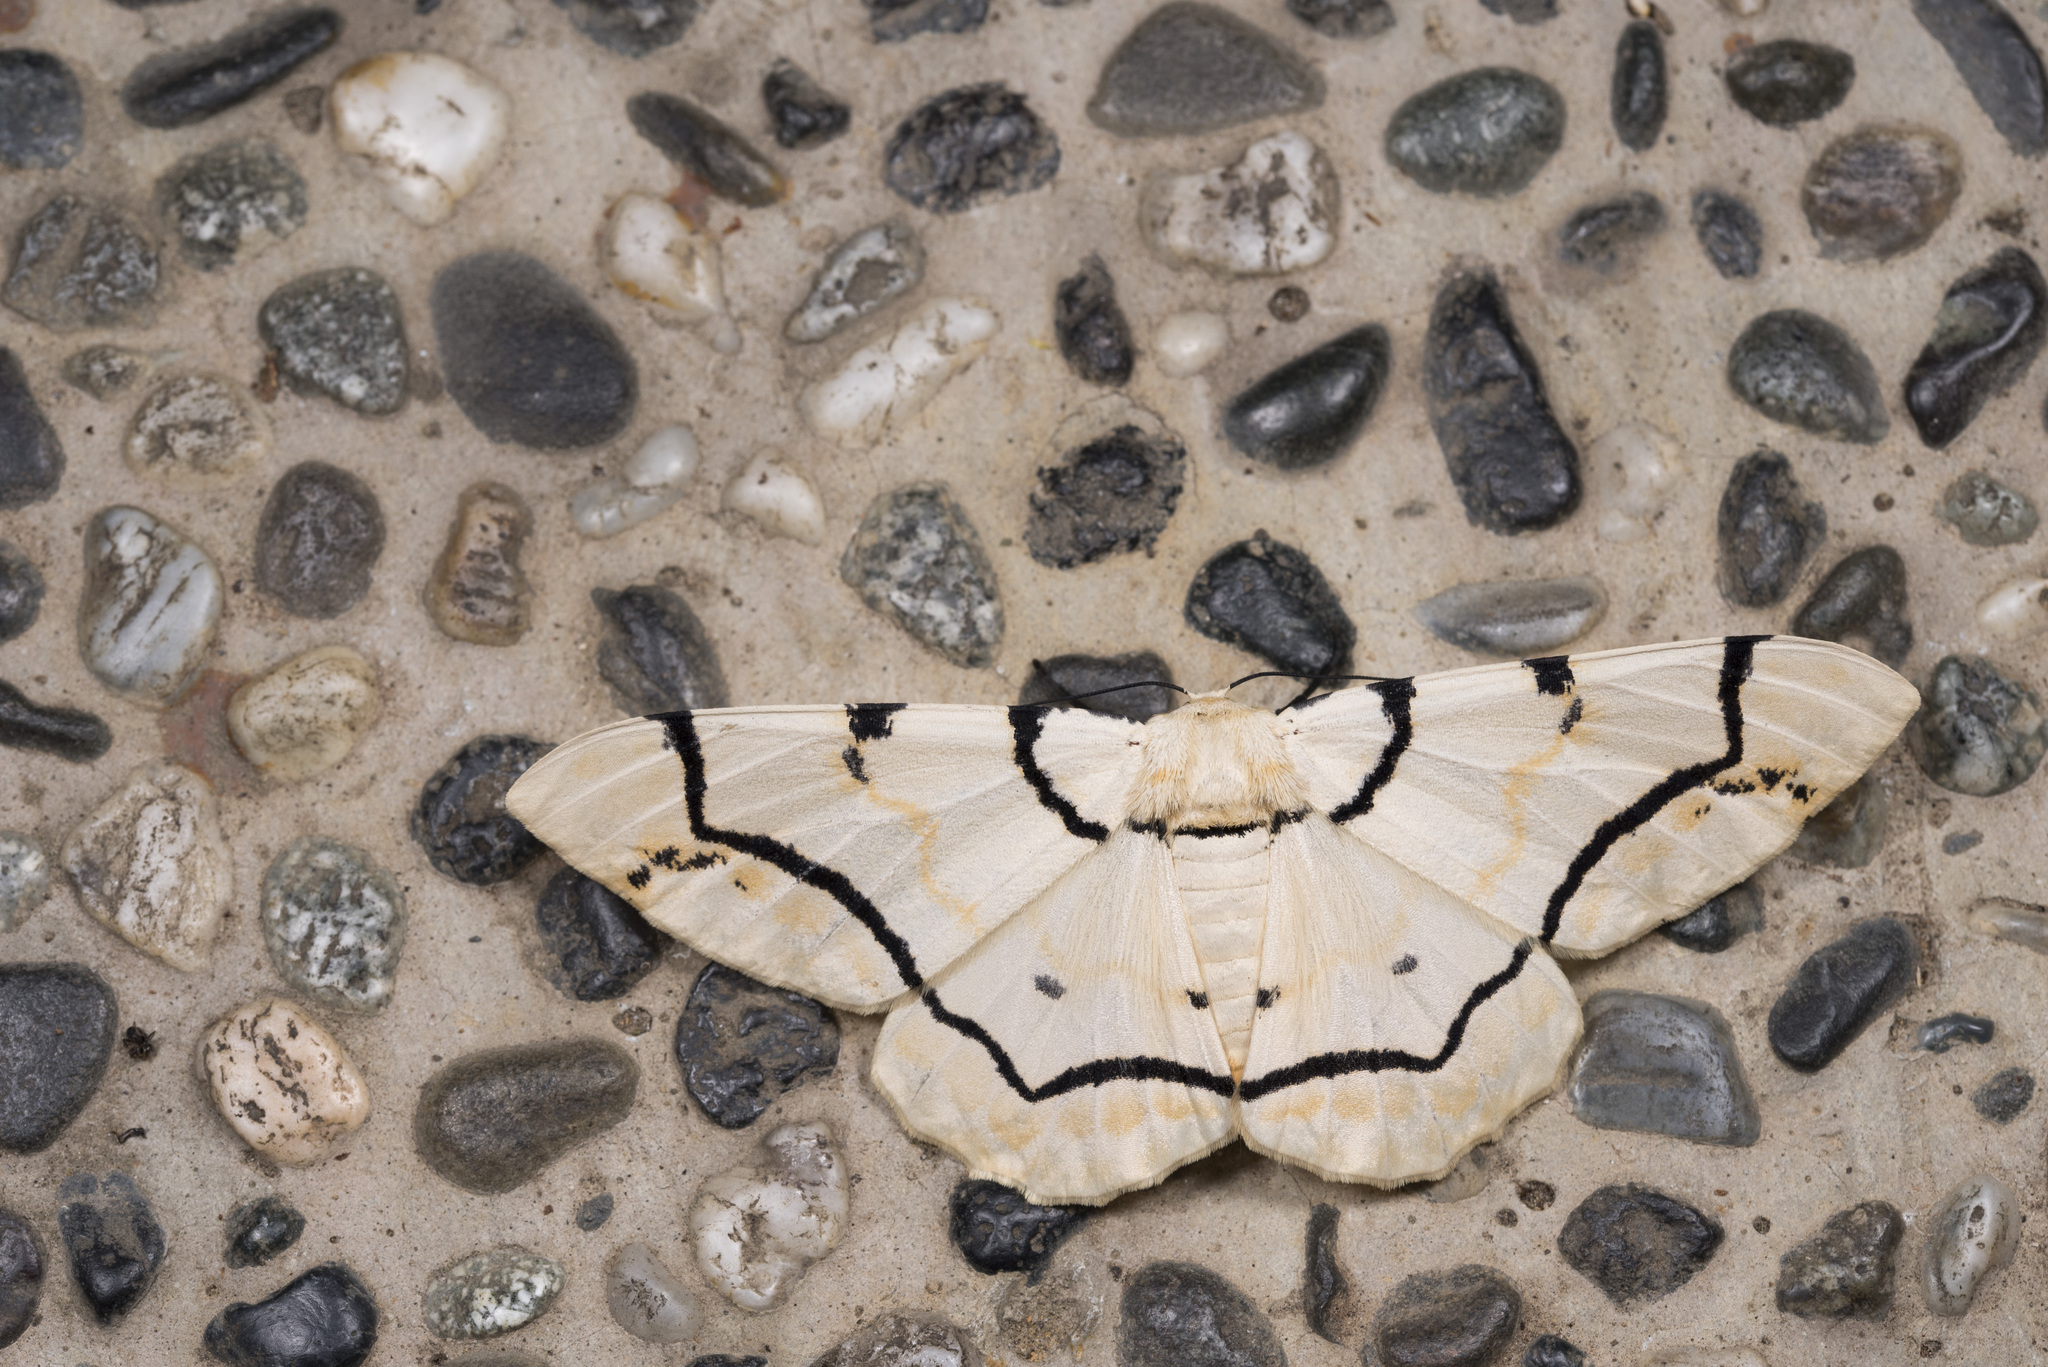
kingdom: Animalia
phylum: Arthropoda
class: Insecta
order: Lepidoptera
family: Geometridae
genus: Biston
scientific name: Biston perclara
